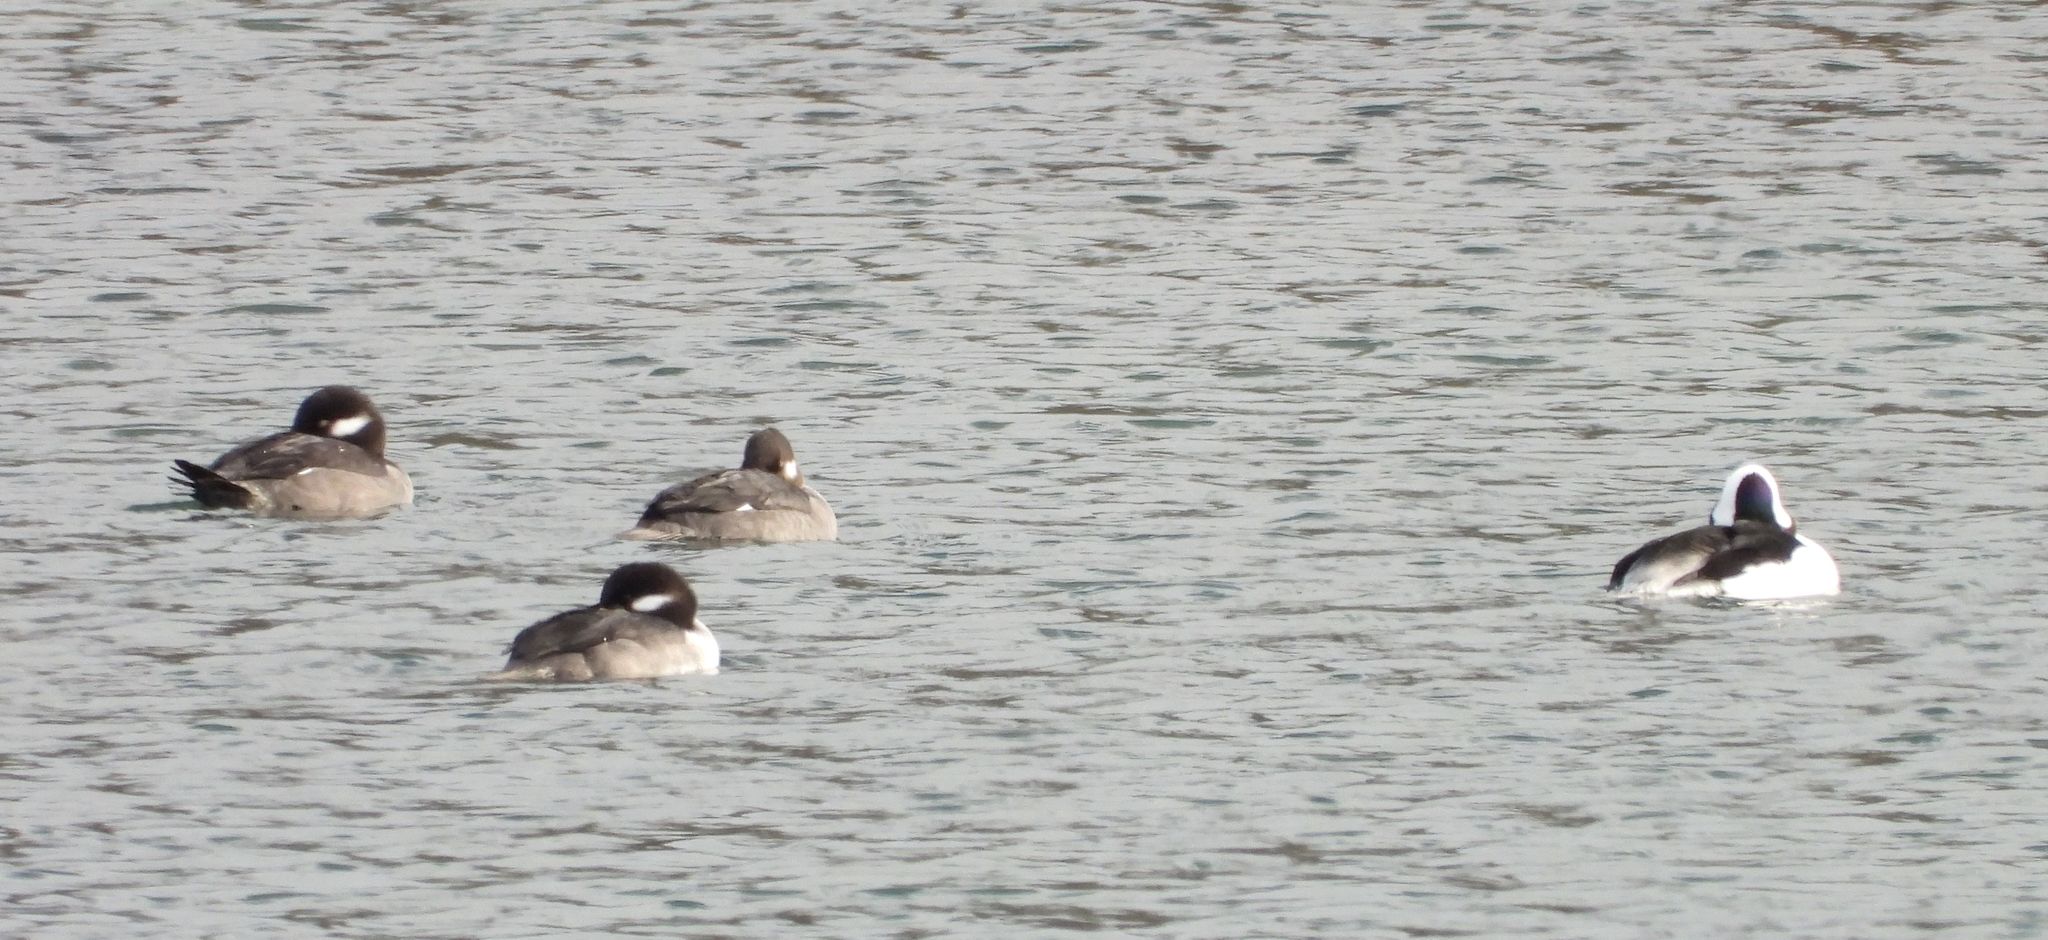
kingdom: Animalia
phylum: Chordata
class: Aves
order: Anseriformes
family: Anatidae
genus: Bucephala
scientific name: Bucephala albeola
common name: Bufflehead
